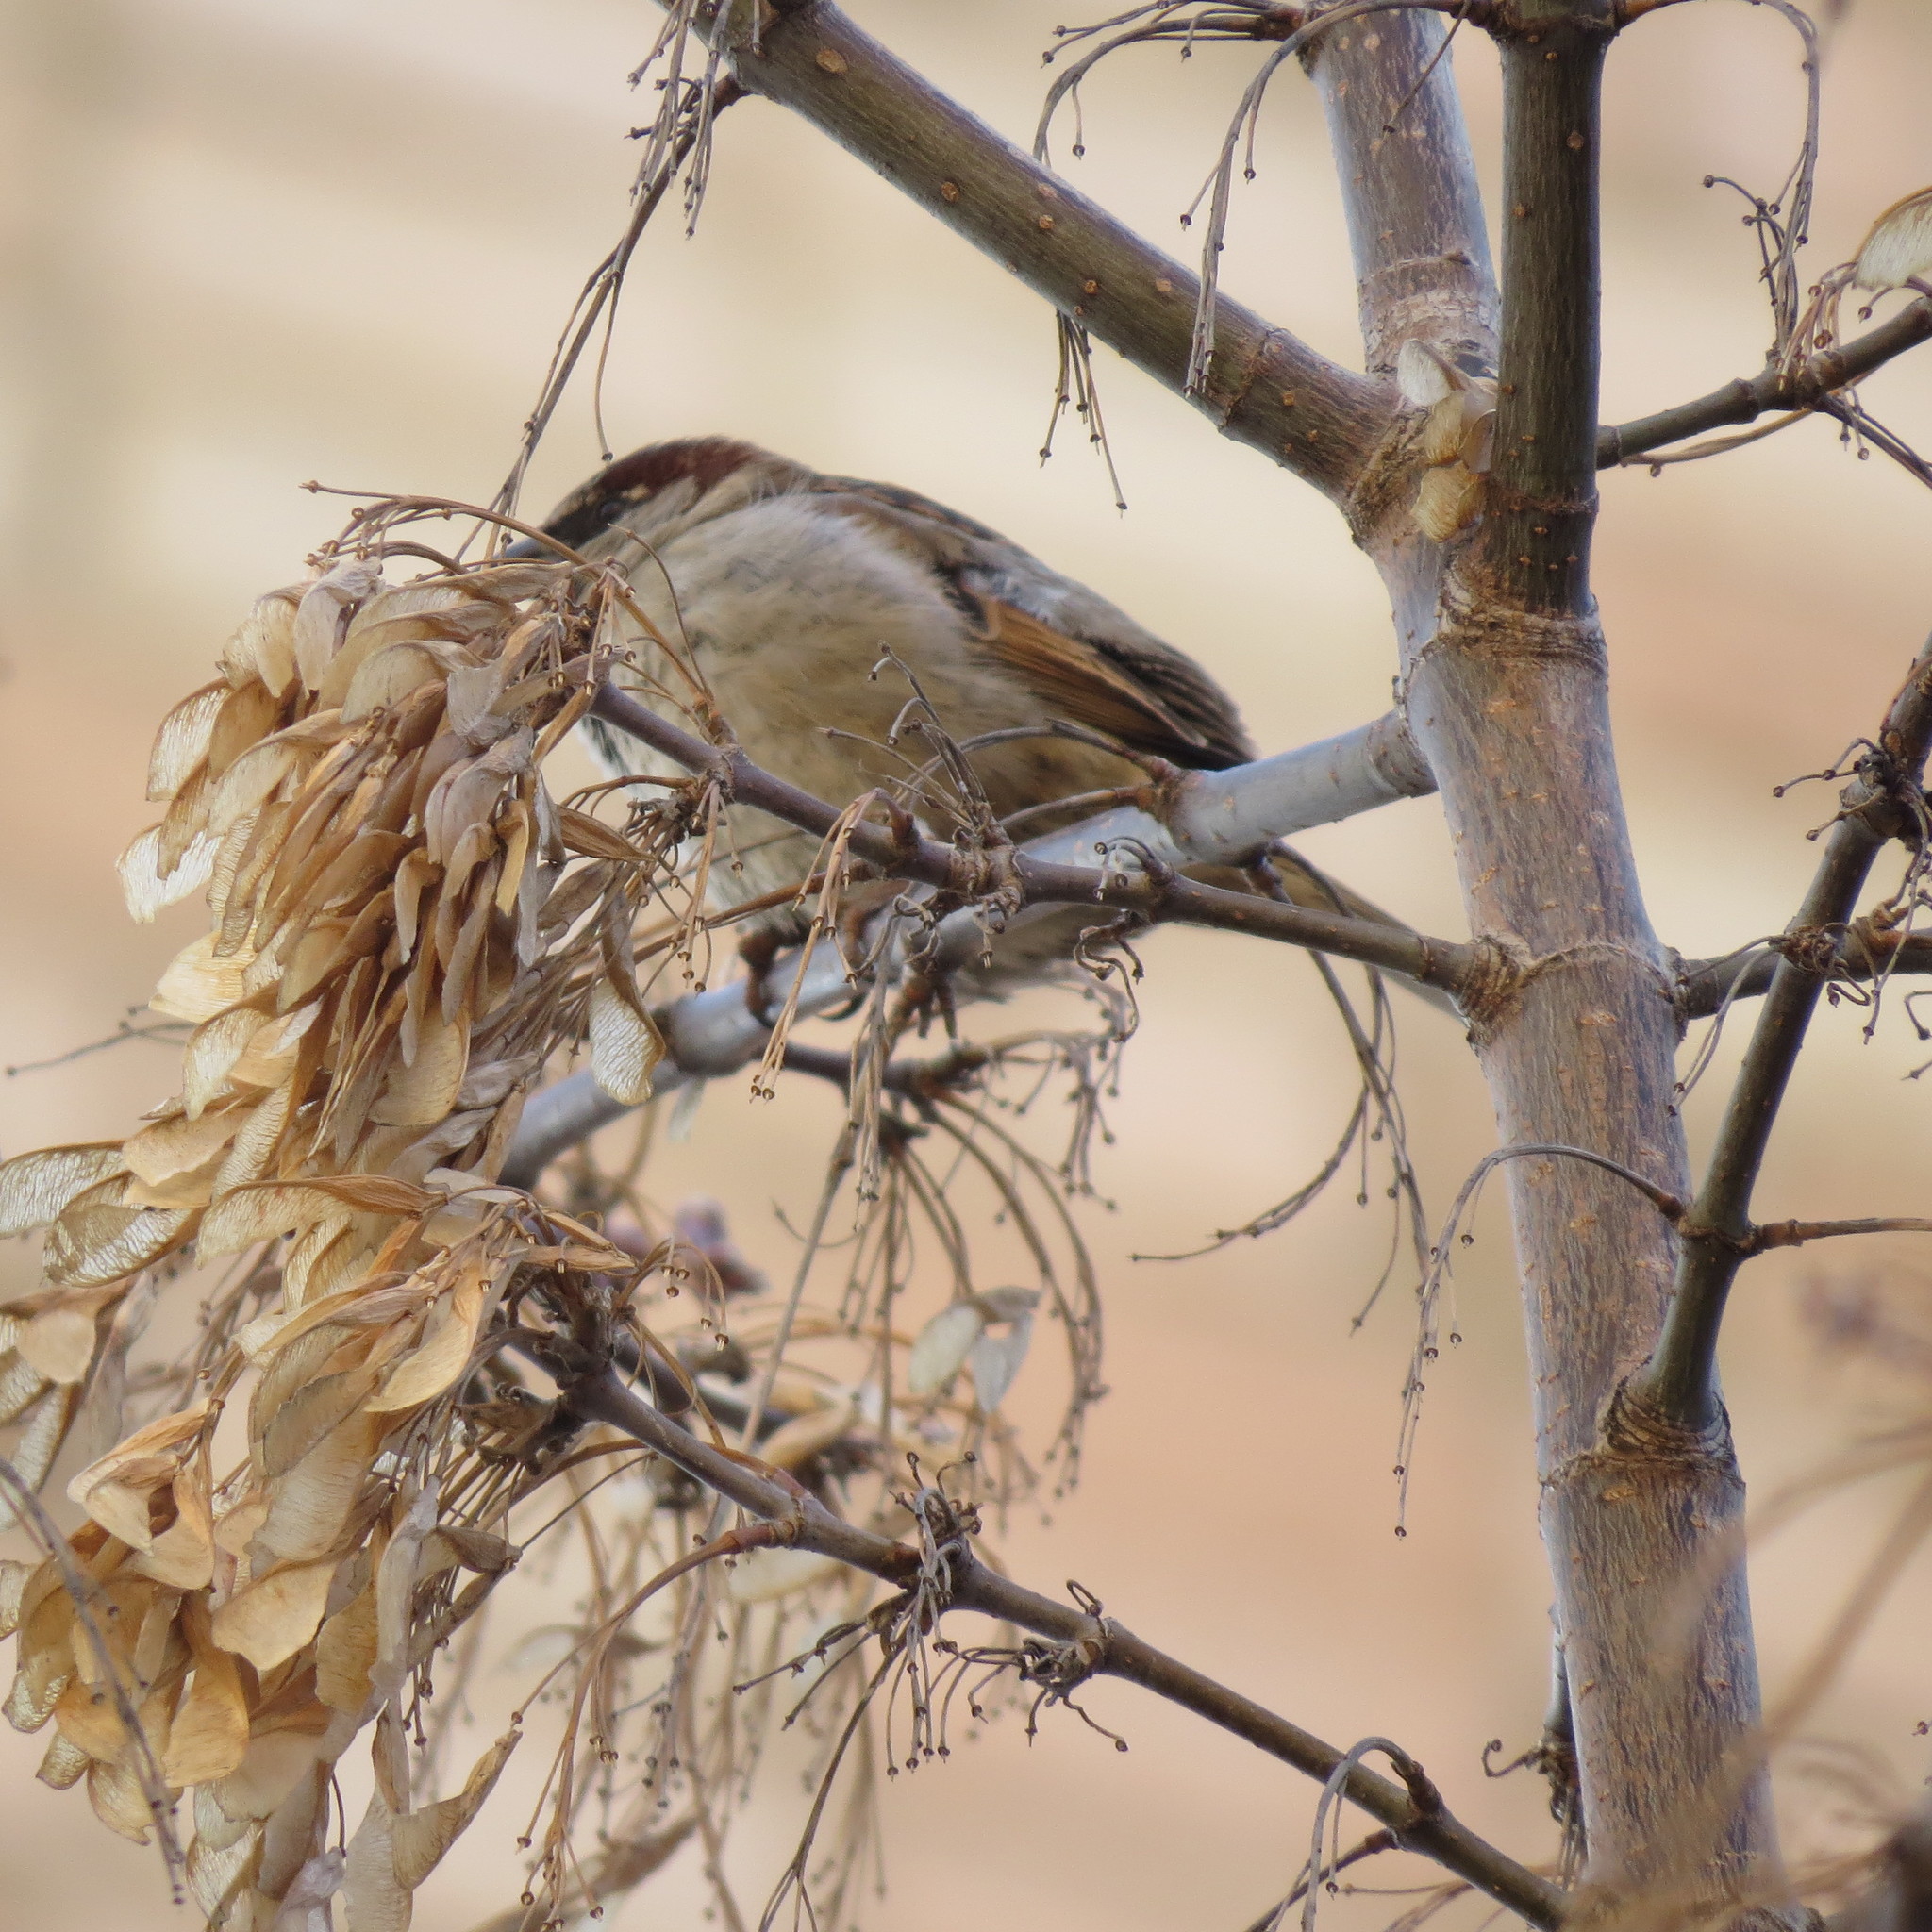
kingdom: Animalia
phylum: Chordata
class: Aves
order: Passeriformes
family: Passeridae
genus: Passer
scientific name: Passer domesticus
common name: House sparrow
